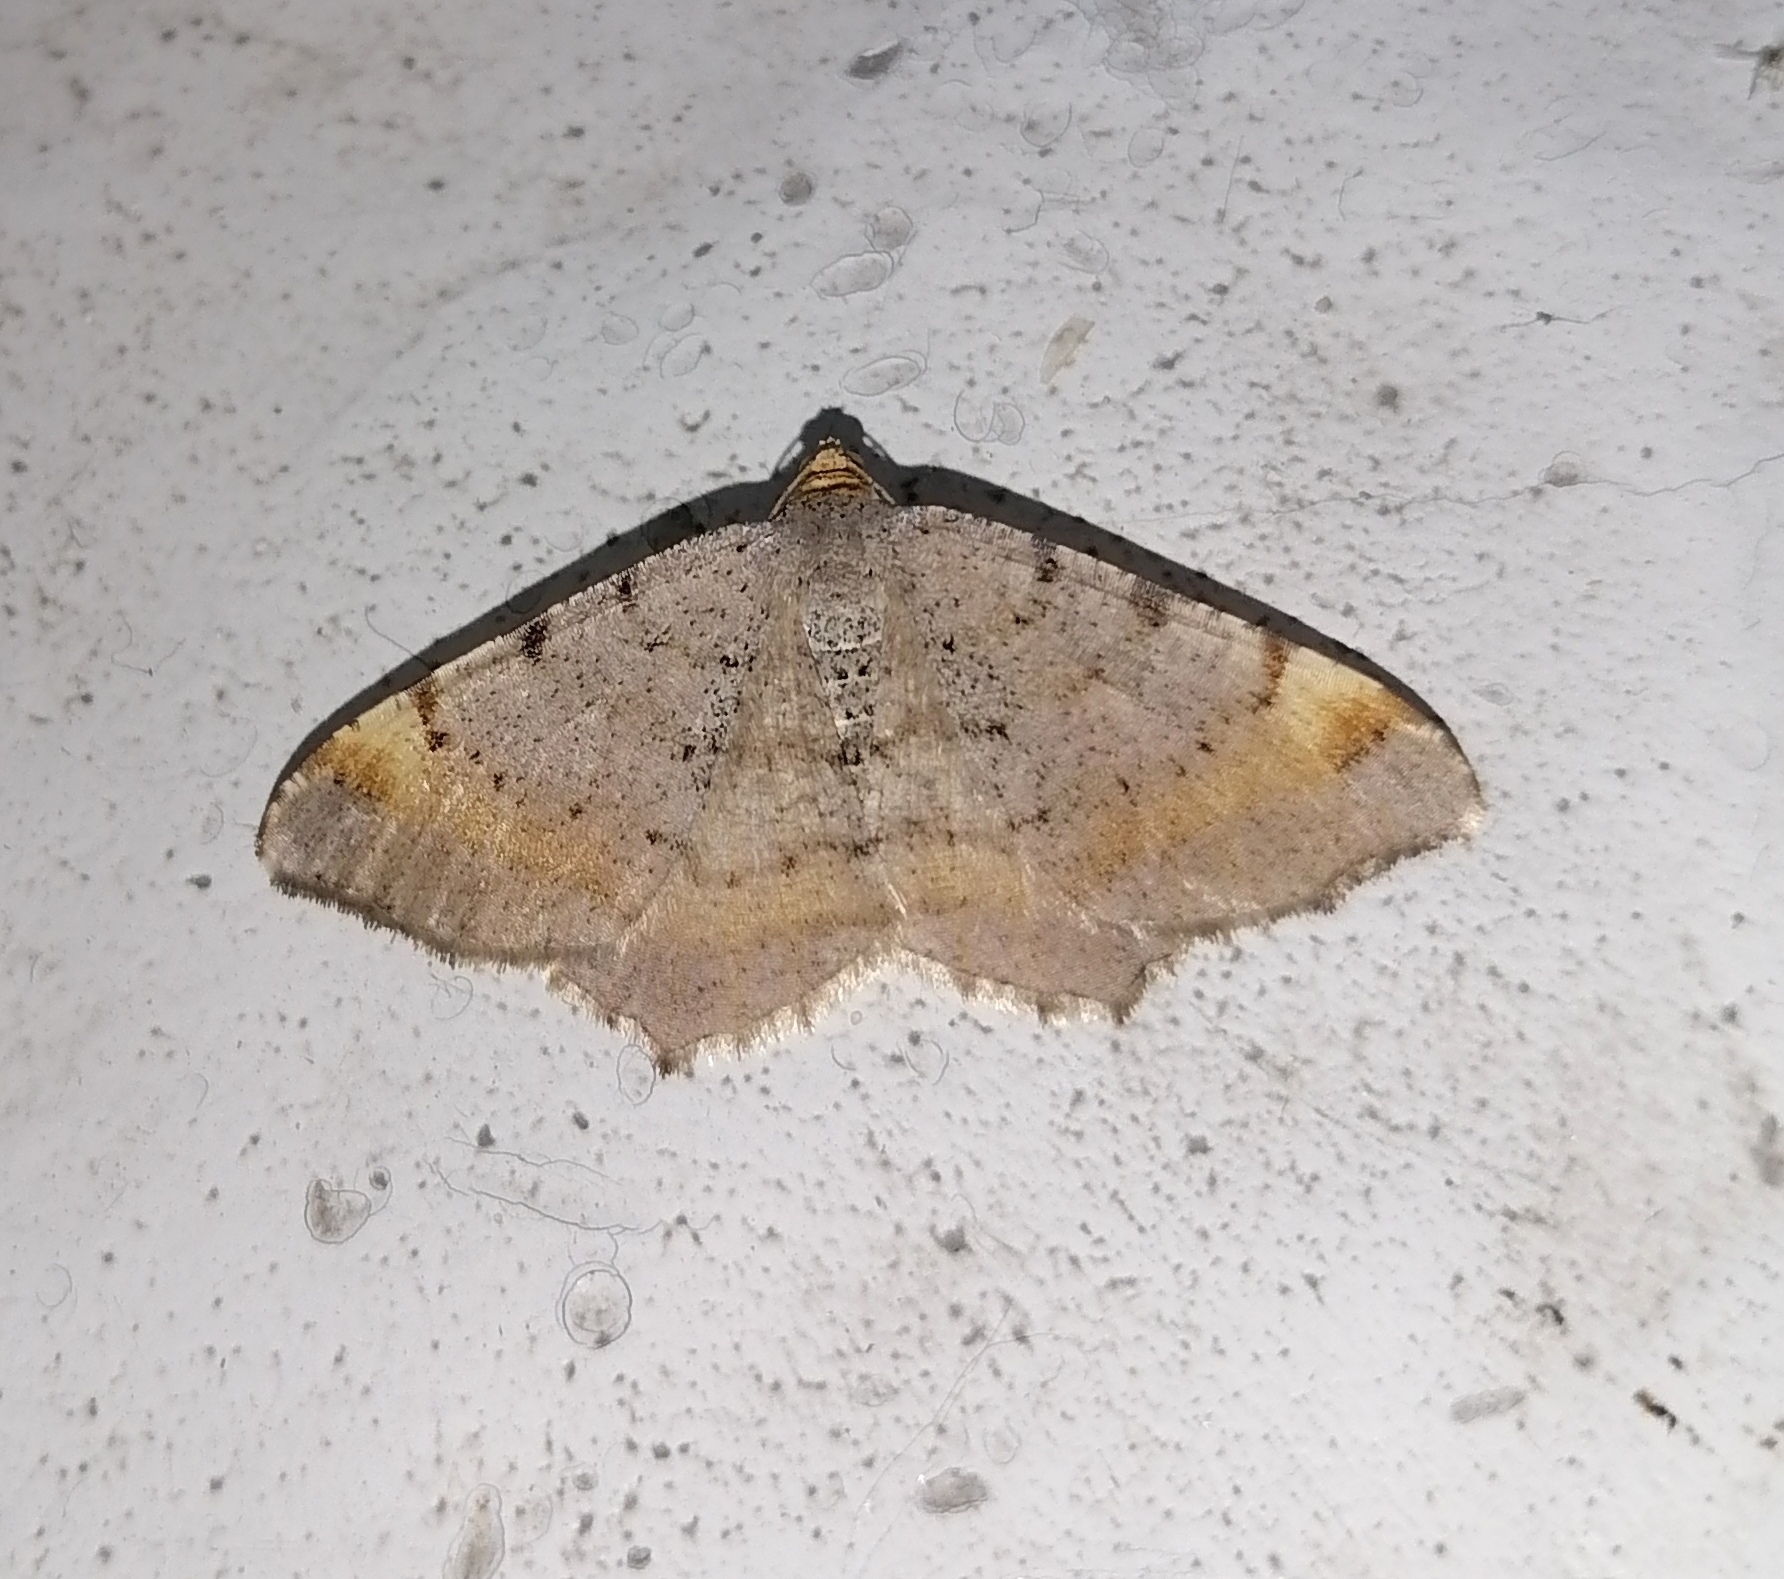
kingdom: Animalia
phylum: Arthropoda
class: Insecta
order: Lepidoptera
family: Geometridae
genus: Macaria
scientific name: Macaria liturata
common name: Tawny-barred angle
